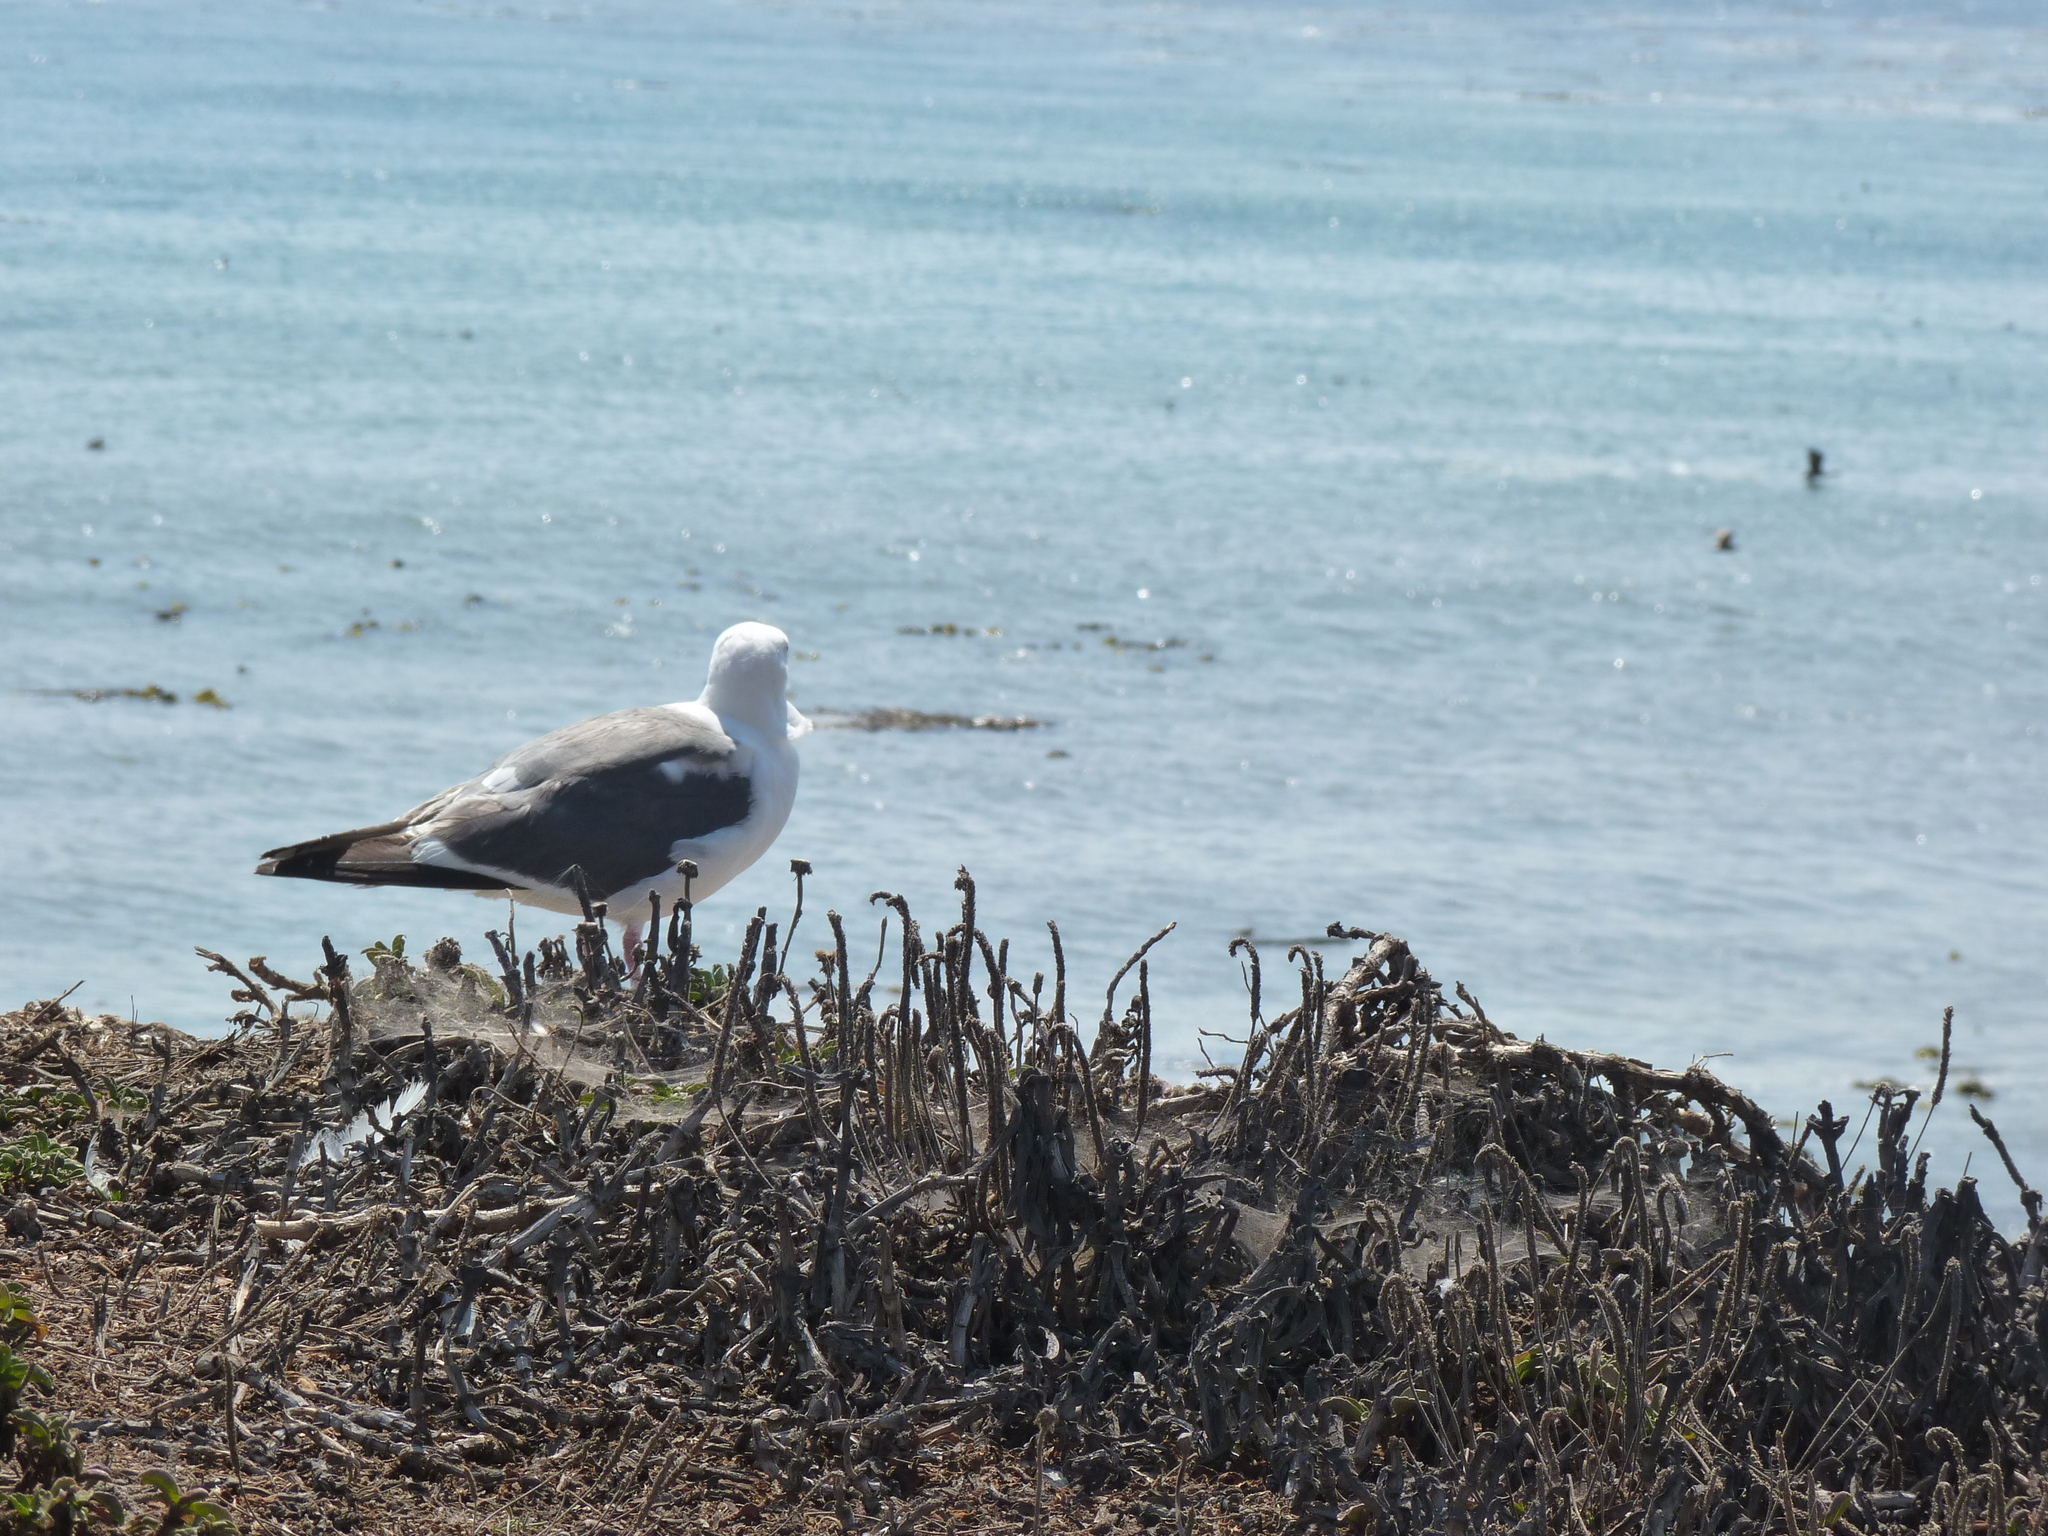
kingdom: Animalia
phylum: Chordata
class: Aves
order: Charadriiformes
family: Laridae
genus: Larus
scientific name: Larus occidentalis
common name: Western gull
